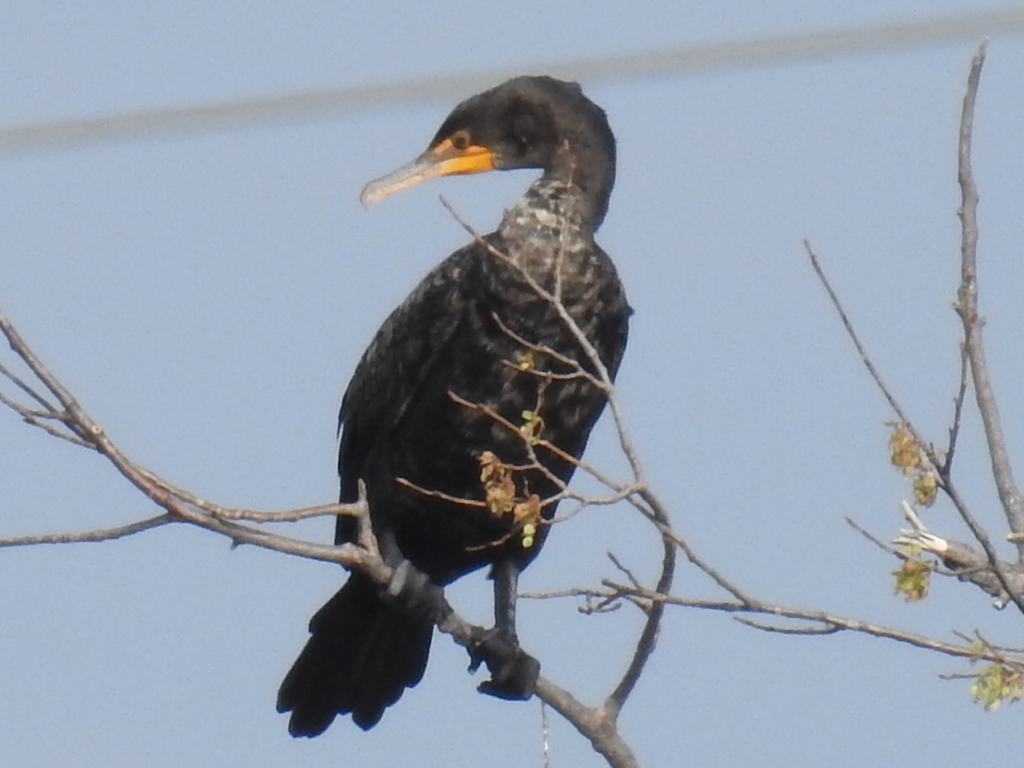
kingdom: Animalia
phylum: Chordata
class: Aves
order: Suliformes
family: Phalacrocoracidae
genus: Phalacrocorax
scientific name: Phalacrocorax auritus
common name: Double-crested cormorant
